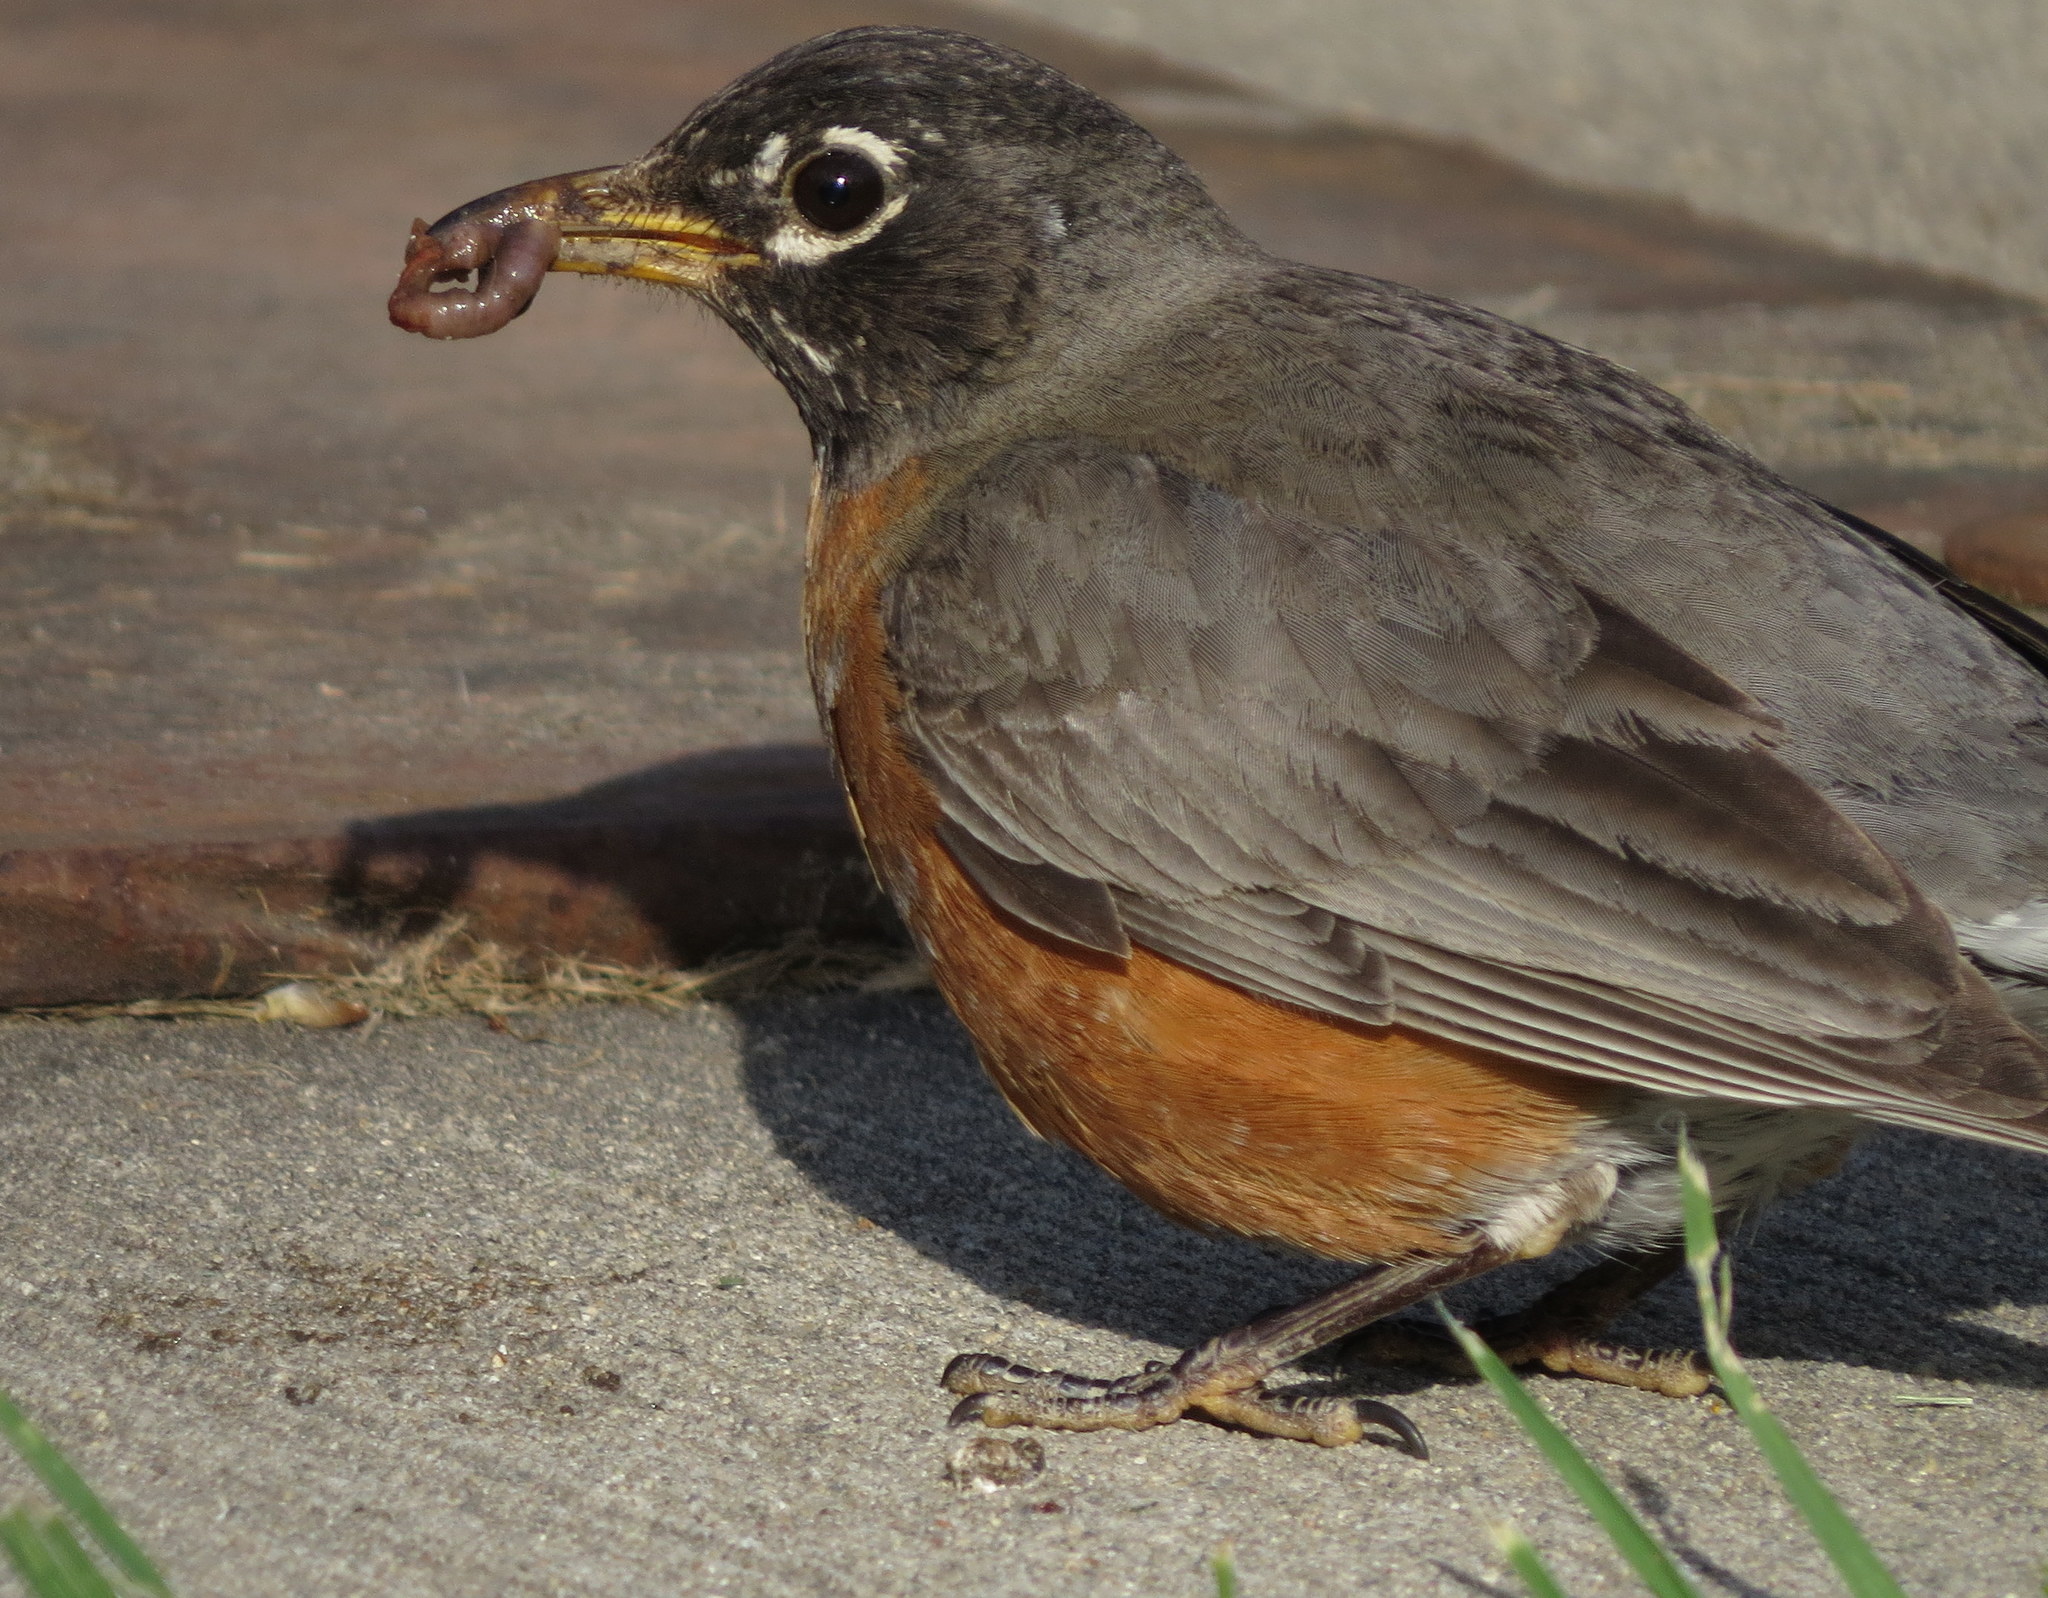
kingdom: Animalia
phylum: Chordata
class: Aves
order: Passeriformes
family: Turdidae
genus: Turdus
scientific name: Turdus migratorius
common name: American robin
